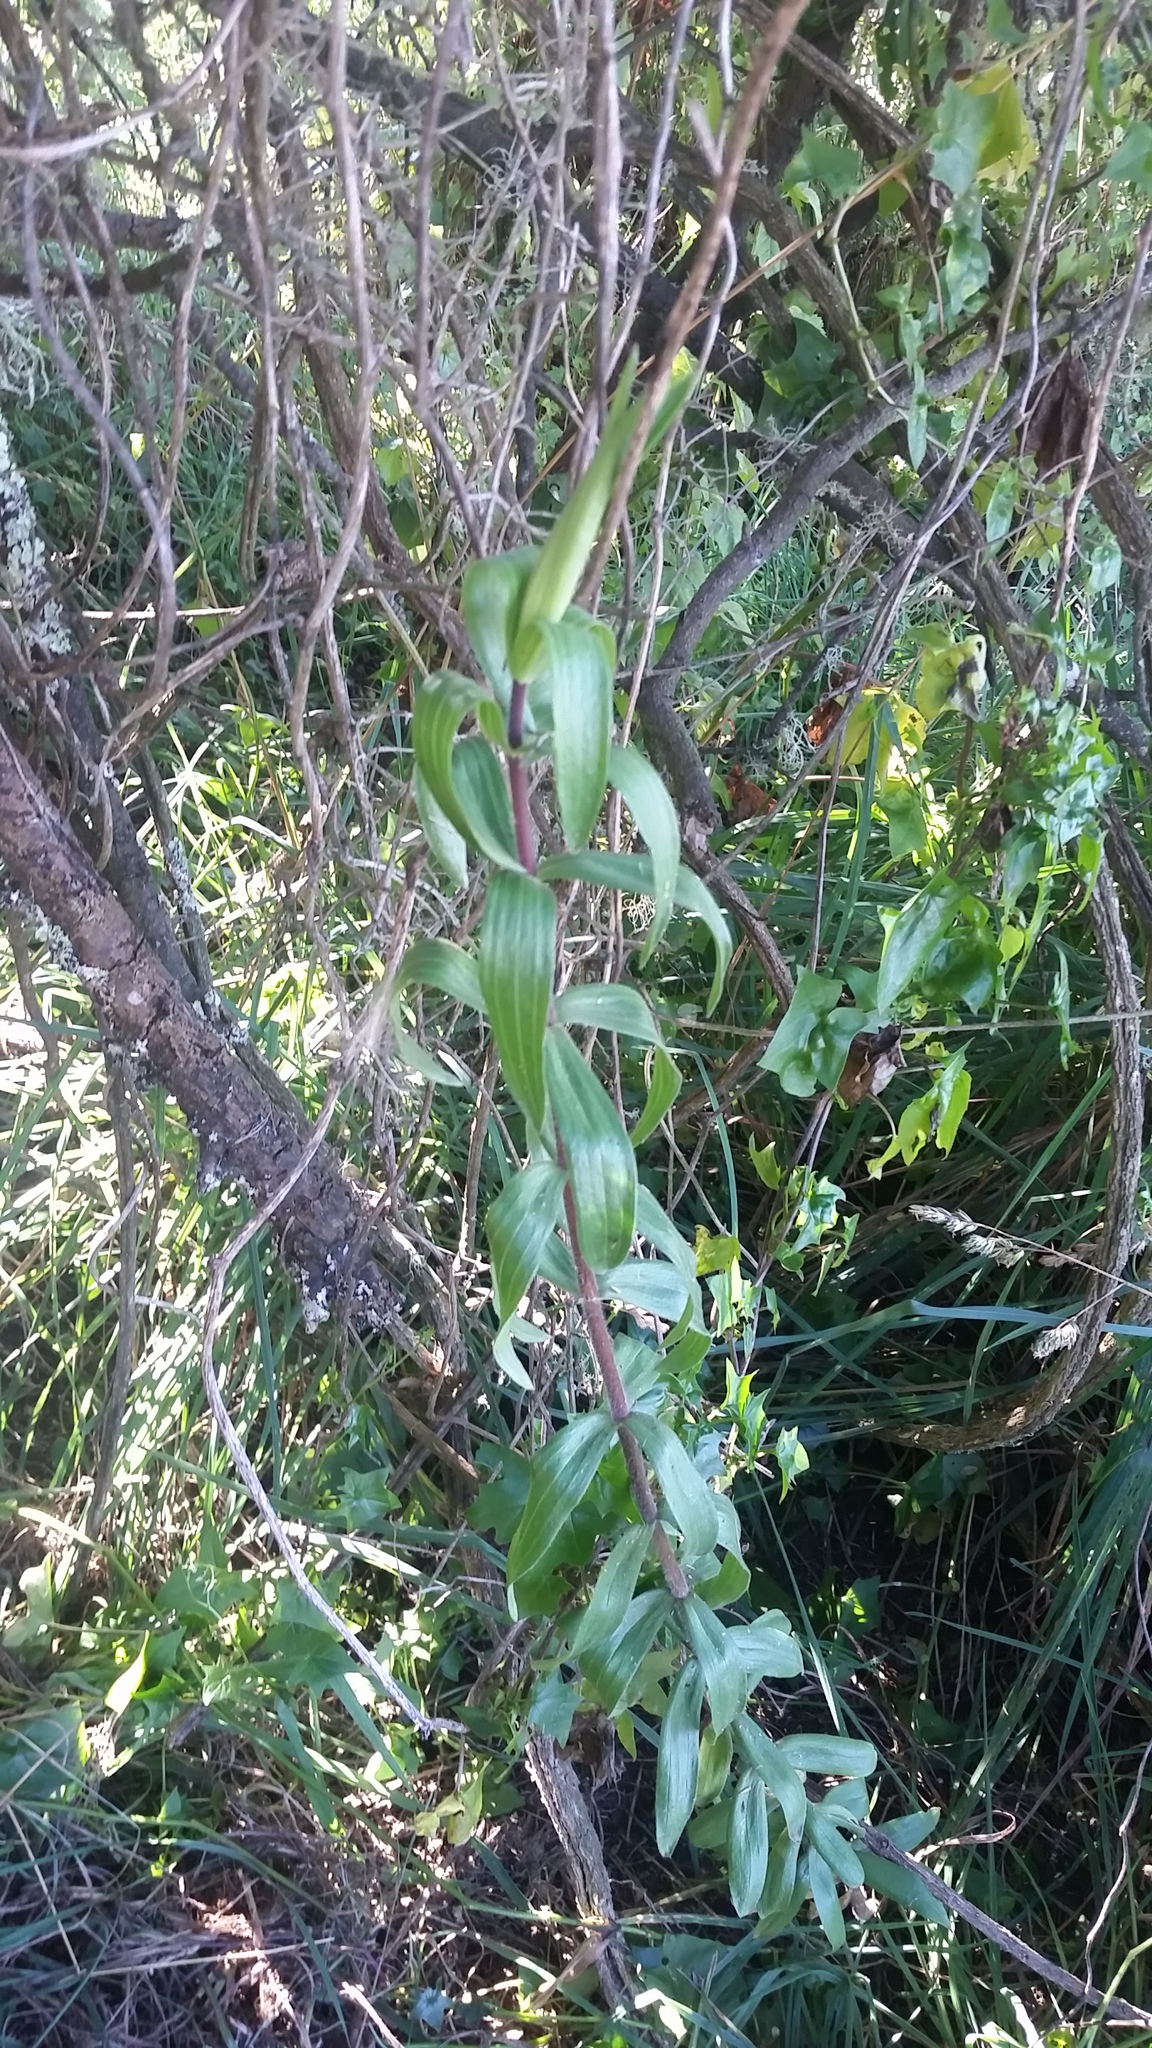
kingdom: Plantae
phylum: Tracheophyta
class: Magnoliopsida
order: Asterales
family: Asteraceae
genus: Dubautia
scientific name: Dubautia arborea
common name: Tree dubautia
